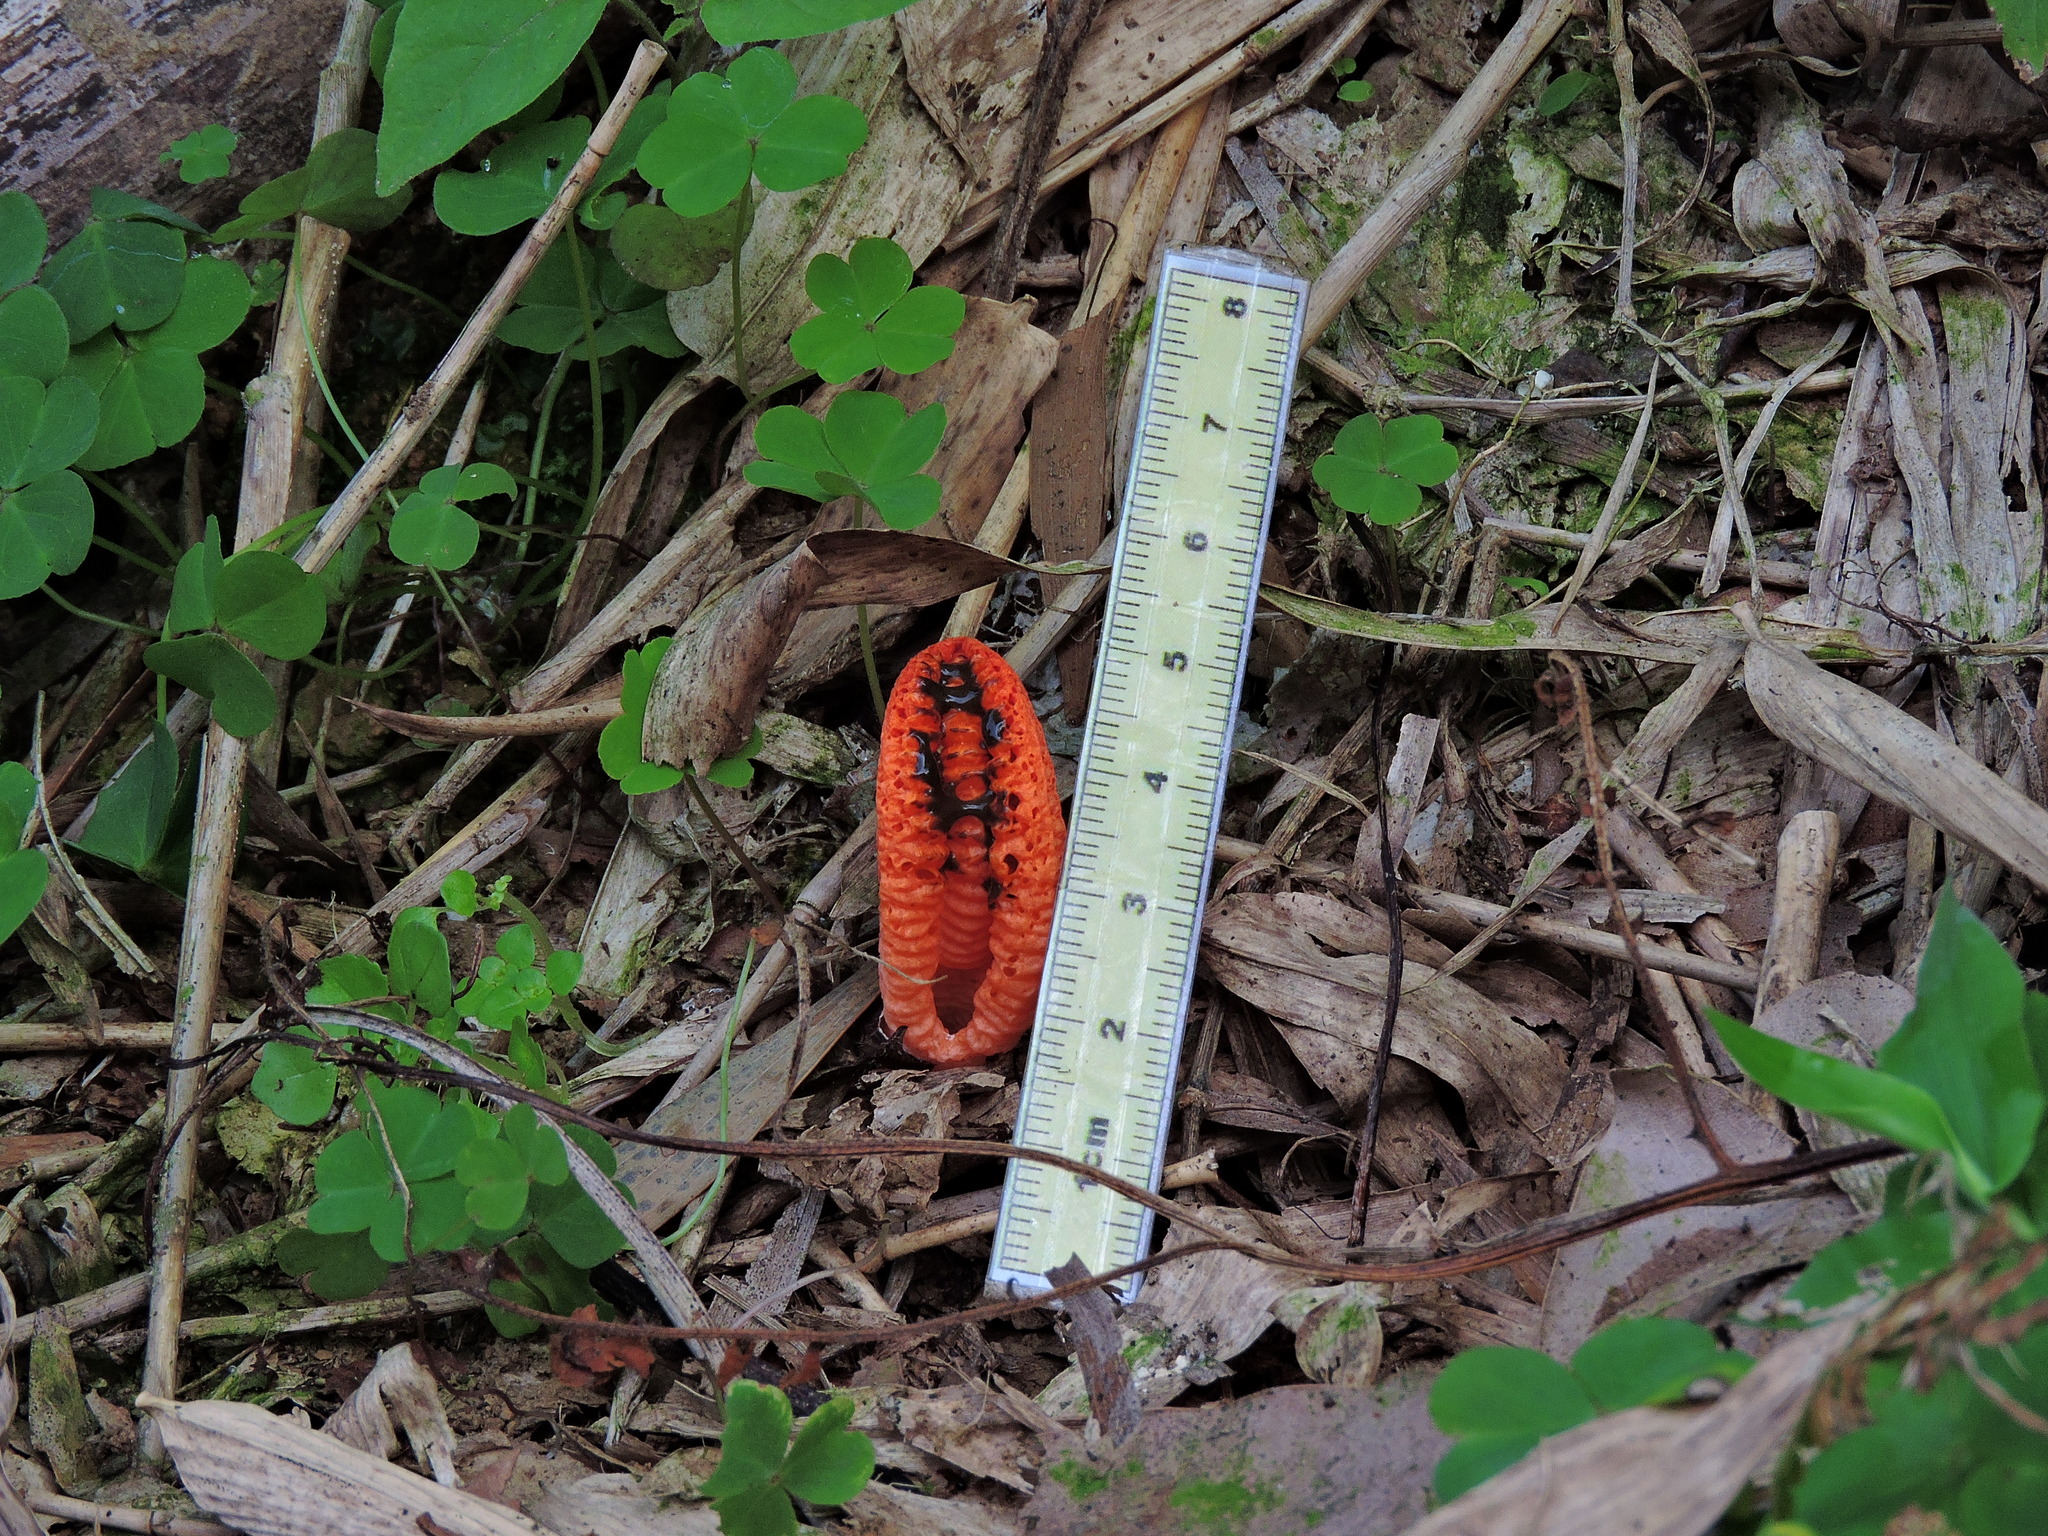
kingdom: Fungi
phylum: Basidiomycota
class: Agaricomycetes
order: Phallales
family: Phallaceae
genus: Pseudocolus
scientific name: Pseudocolus fusiformis
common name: Stinky squid
